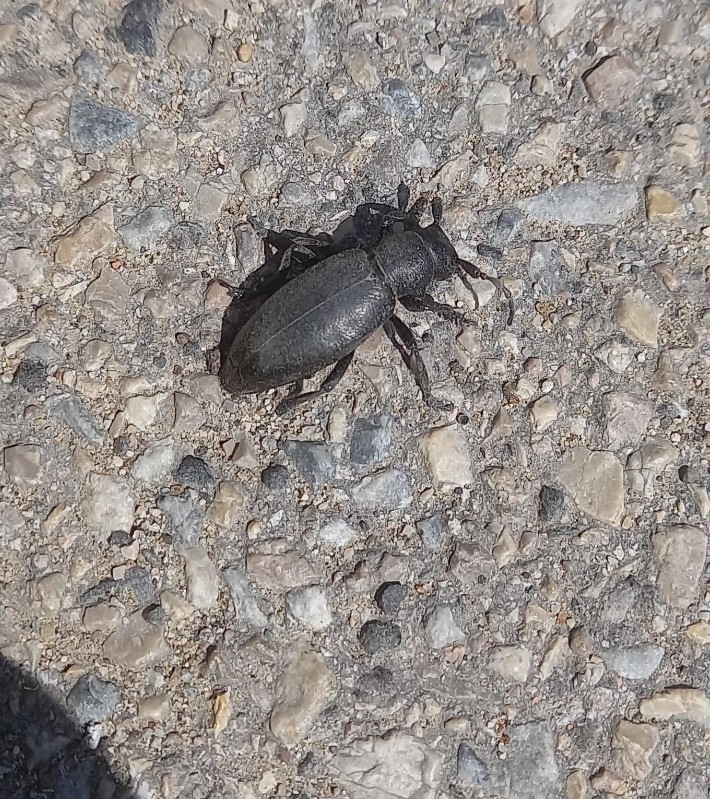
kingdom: Animalia
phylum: Arthropoda
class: Insecta
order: Coleoptera
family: Cerambycidae
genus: Dorcadion
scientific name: Dorcadion aethiops
